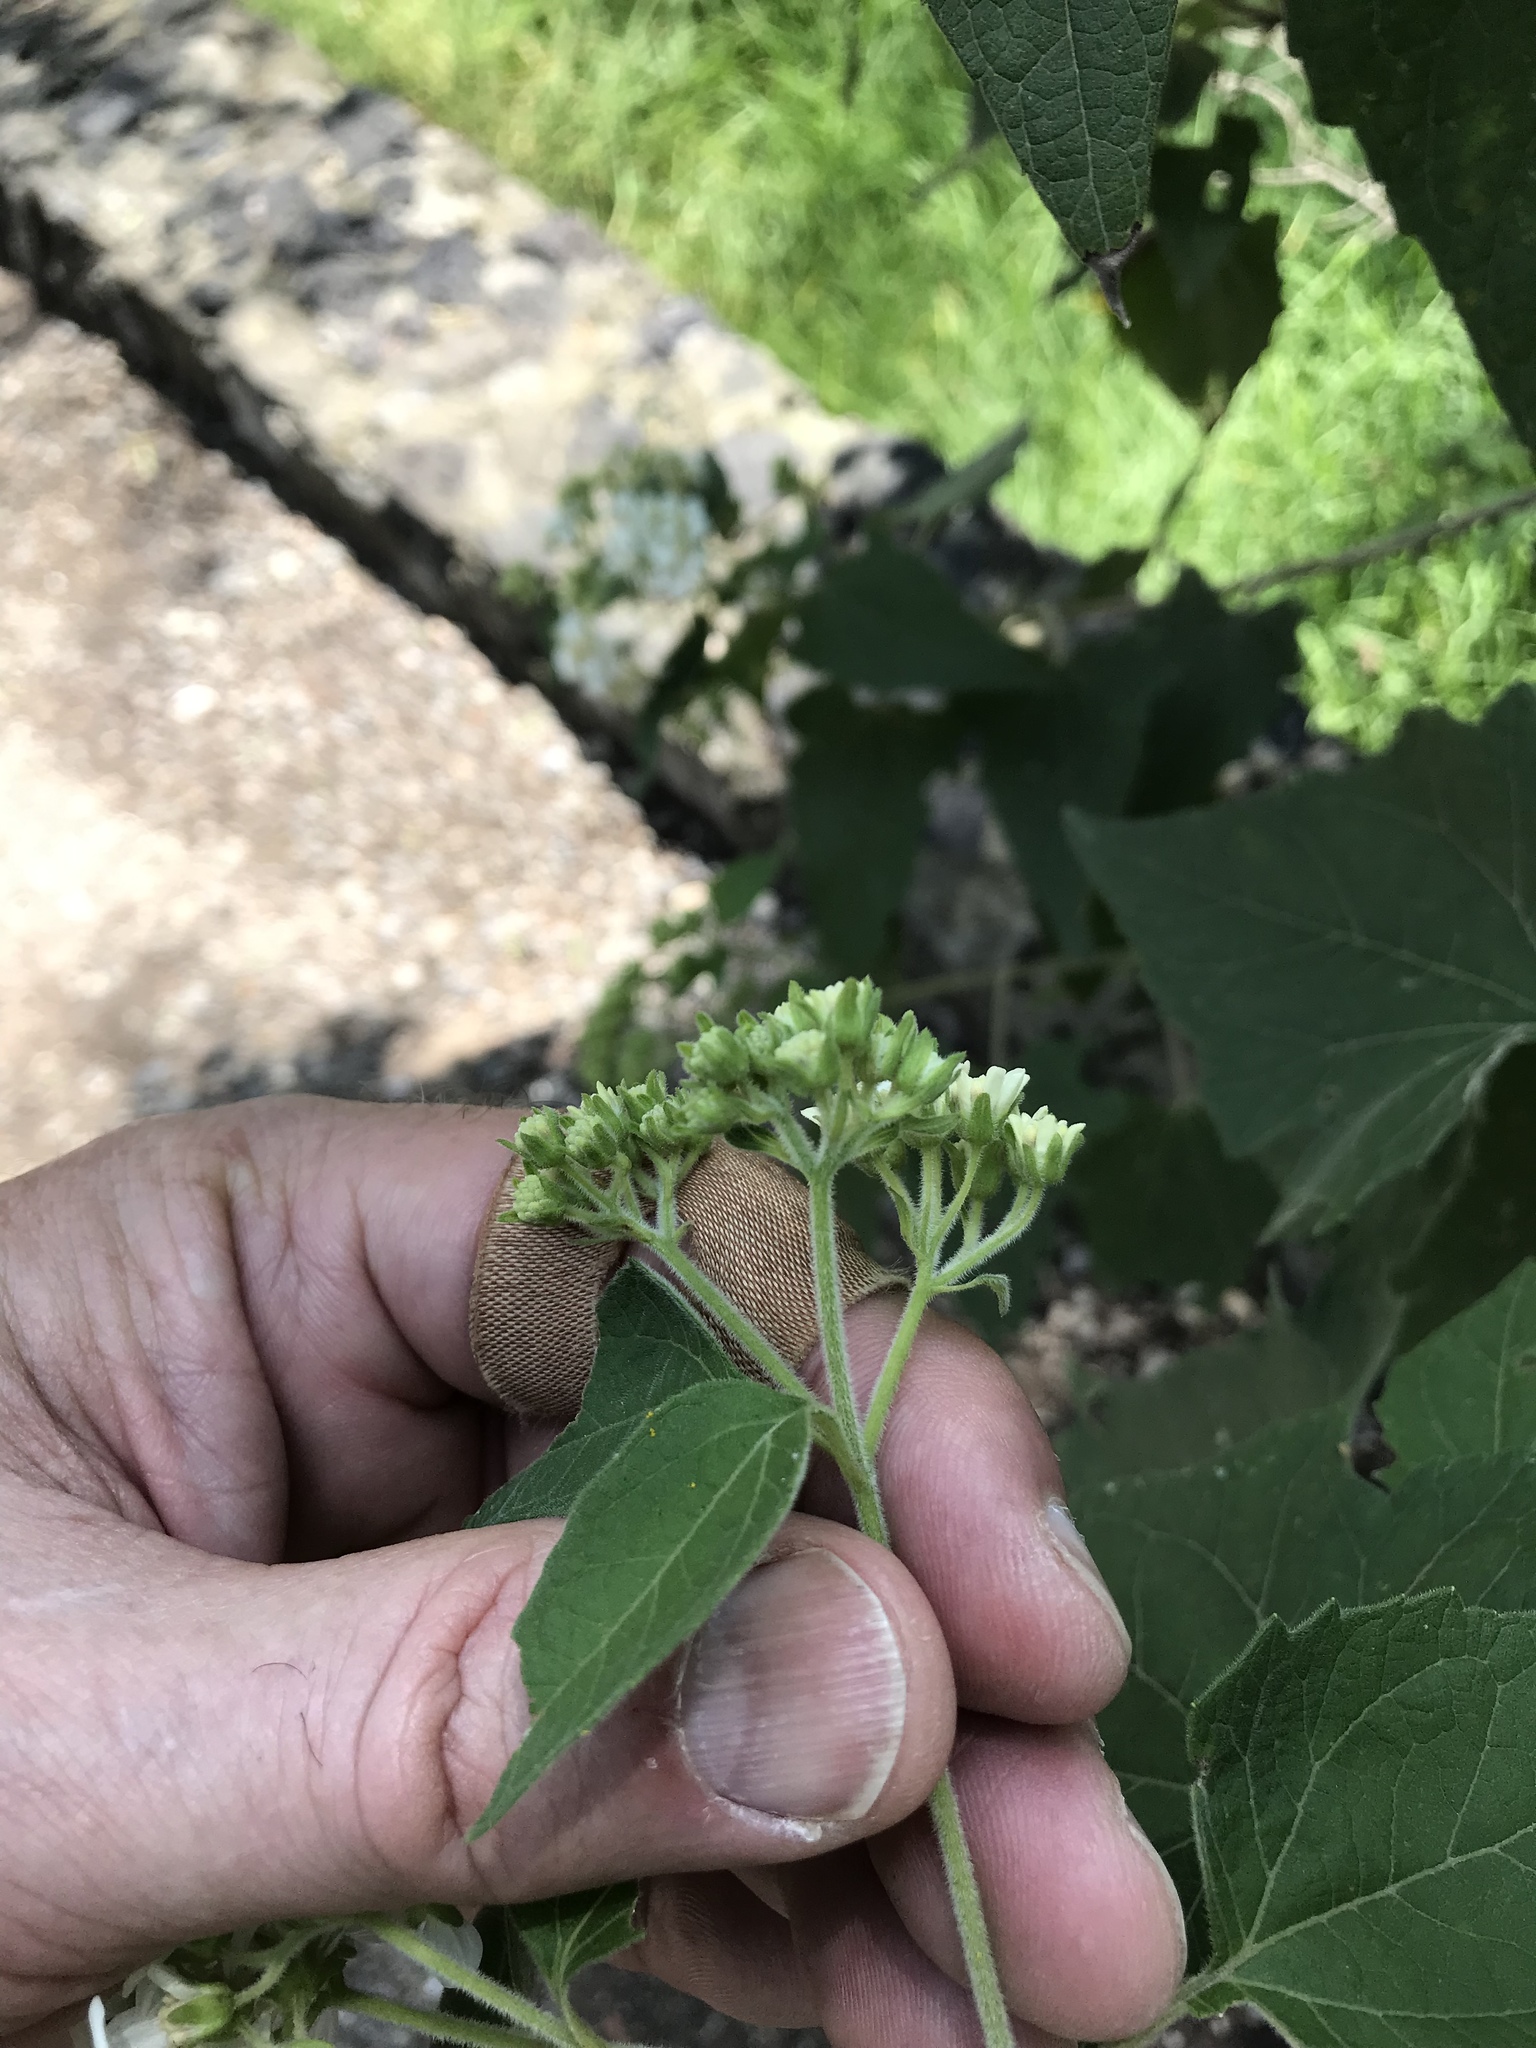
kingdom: Plantae
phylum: Tracheophyta
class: Magnoliopsida
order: Asterales
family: Asteraceae
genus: Montanoa
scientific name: Montanoa tomentosa
